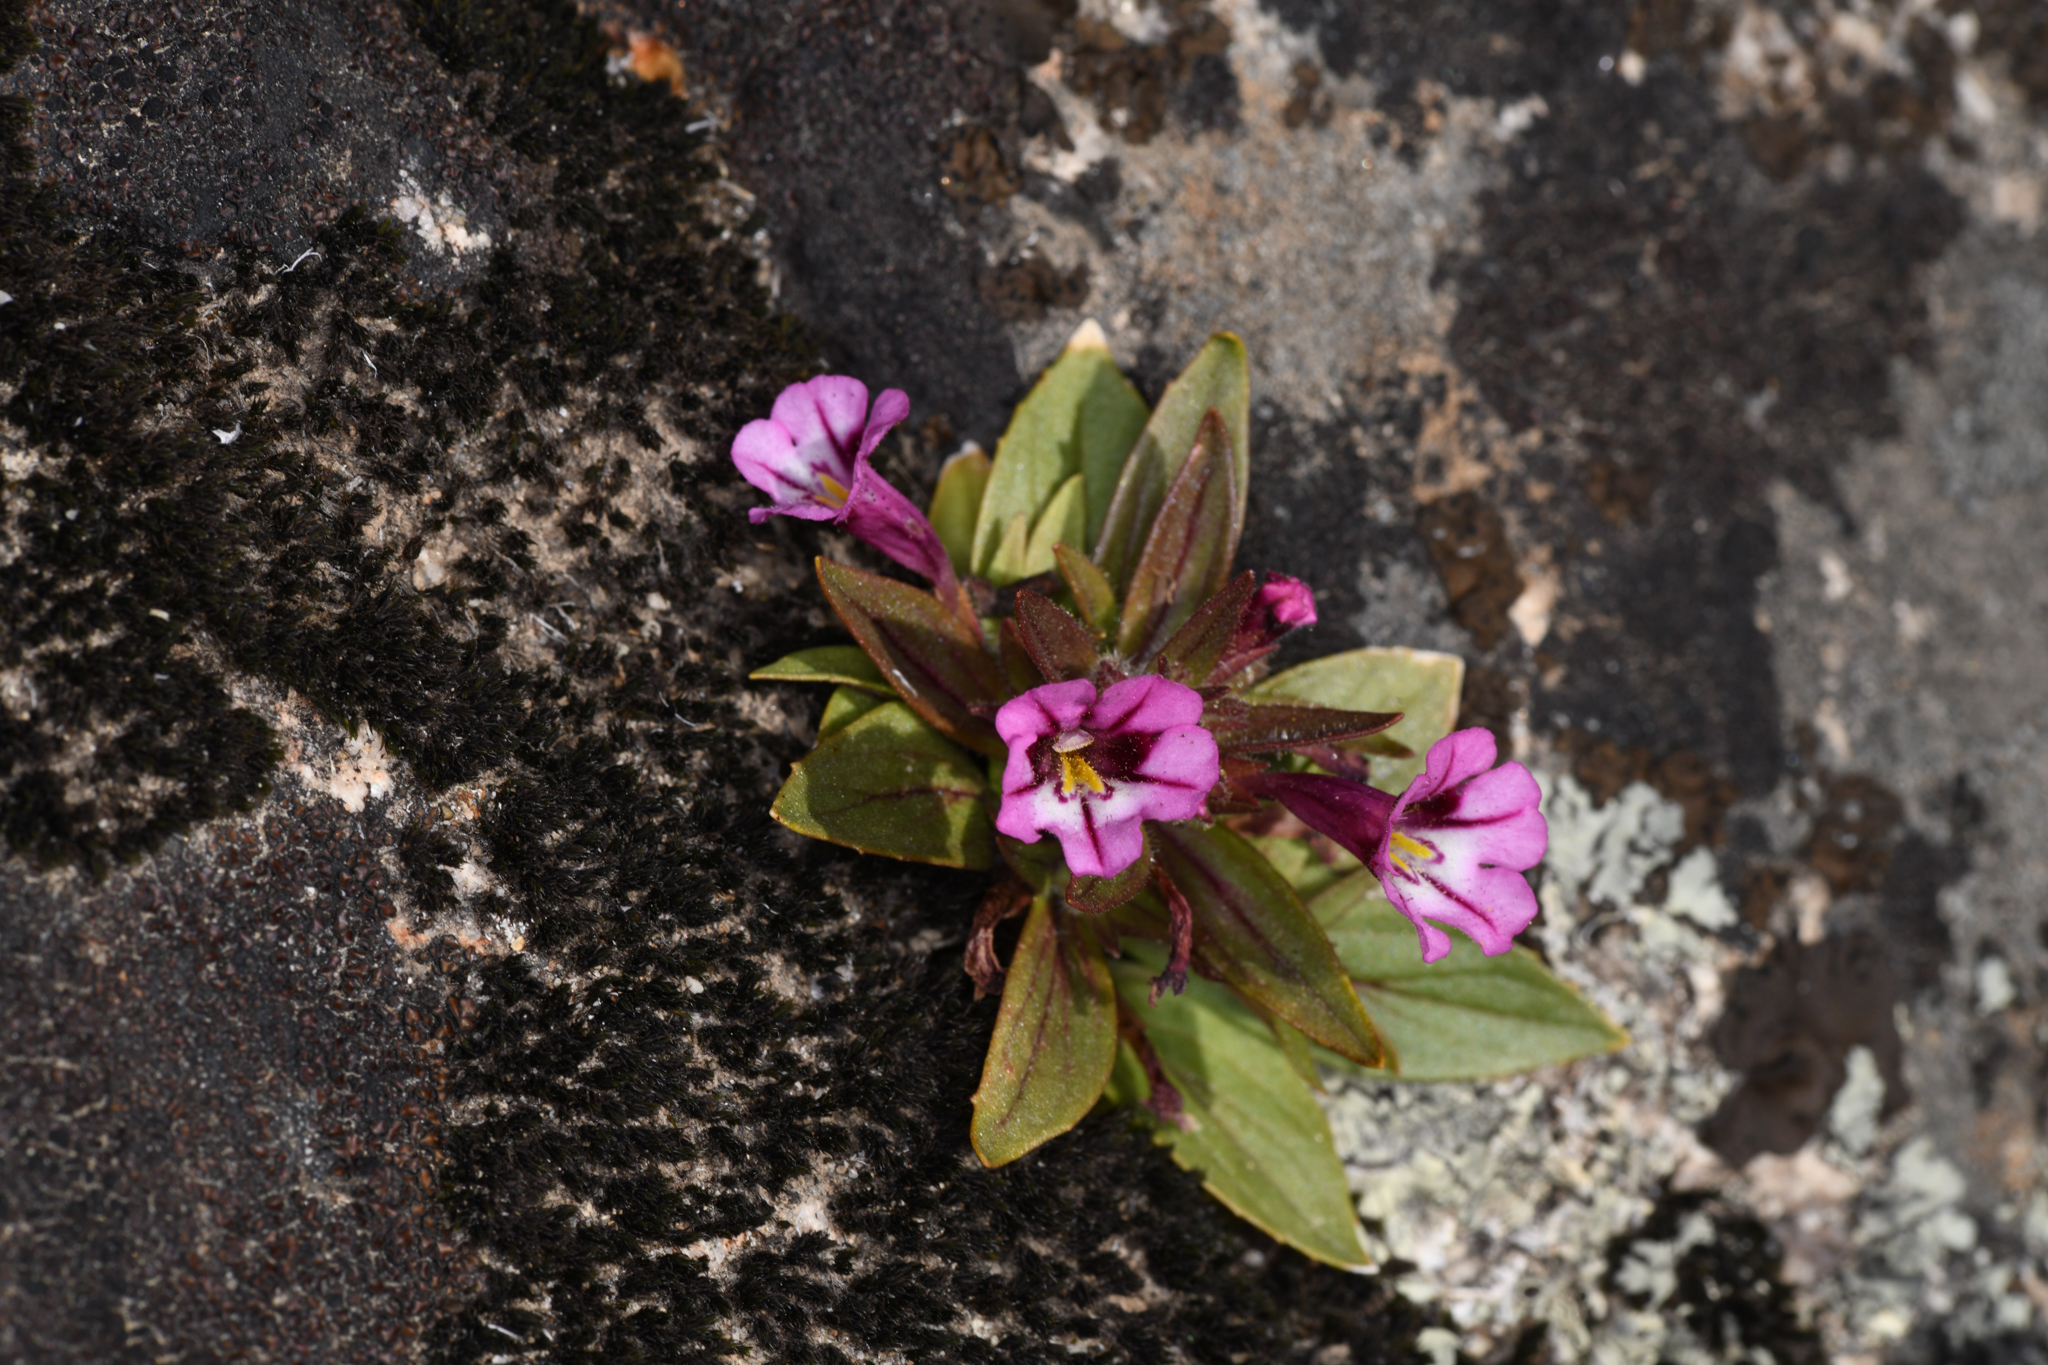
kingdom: Plantae
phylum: Tracheophyta
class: Magnoliopsida
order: Lamiales
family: Phrymaceae
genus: Diplacus
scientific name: Diplacus graniticola
